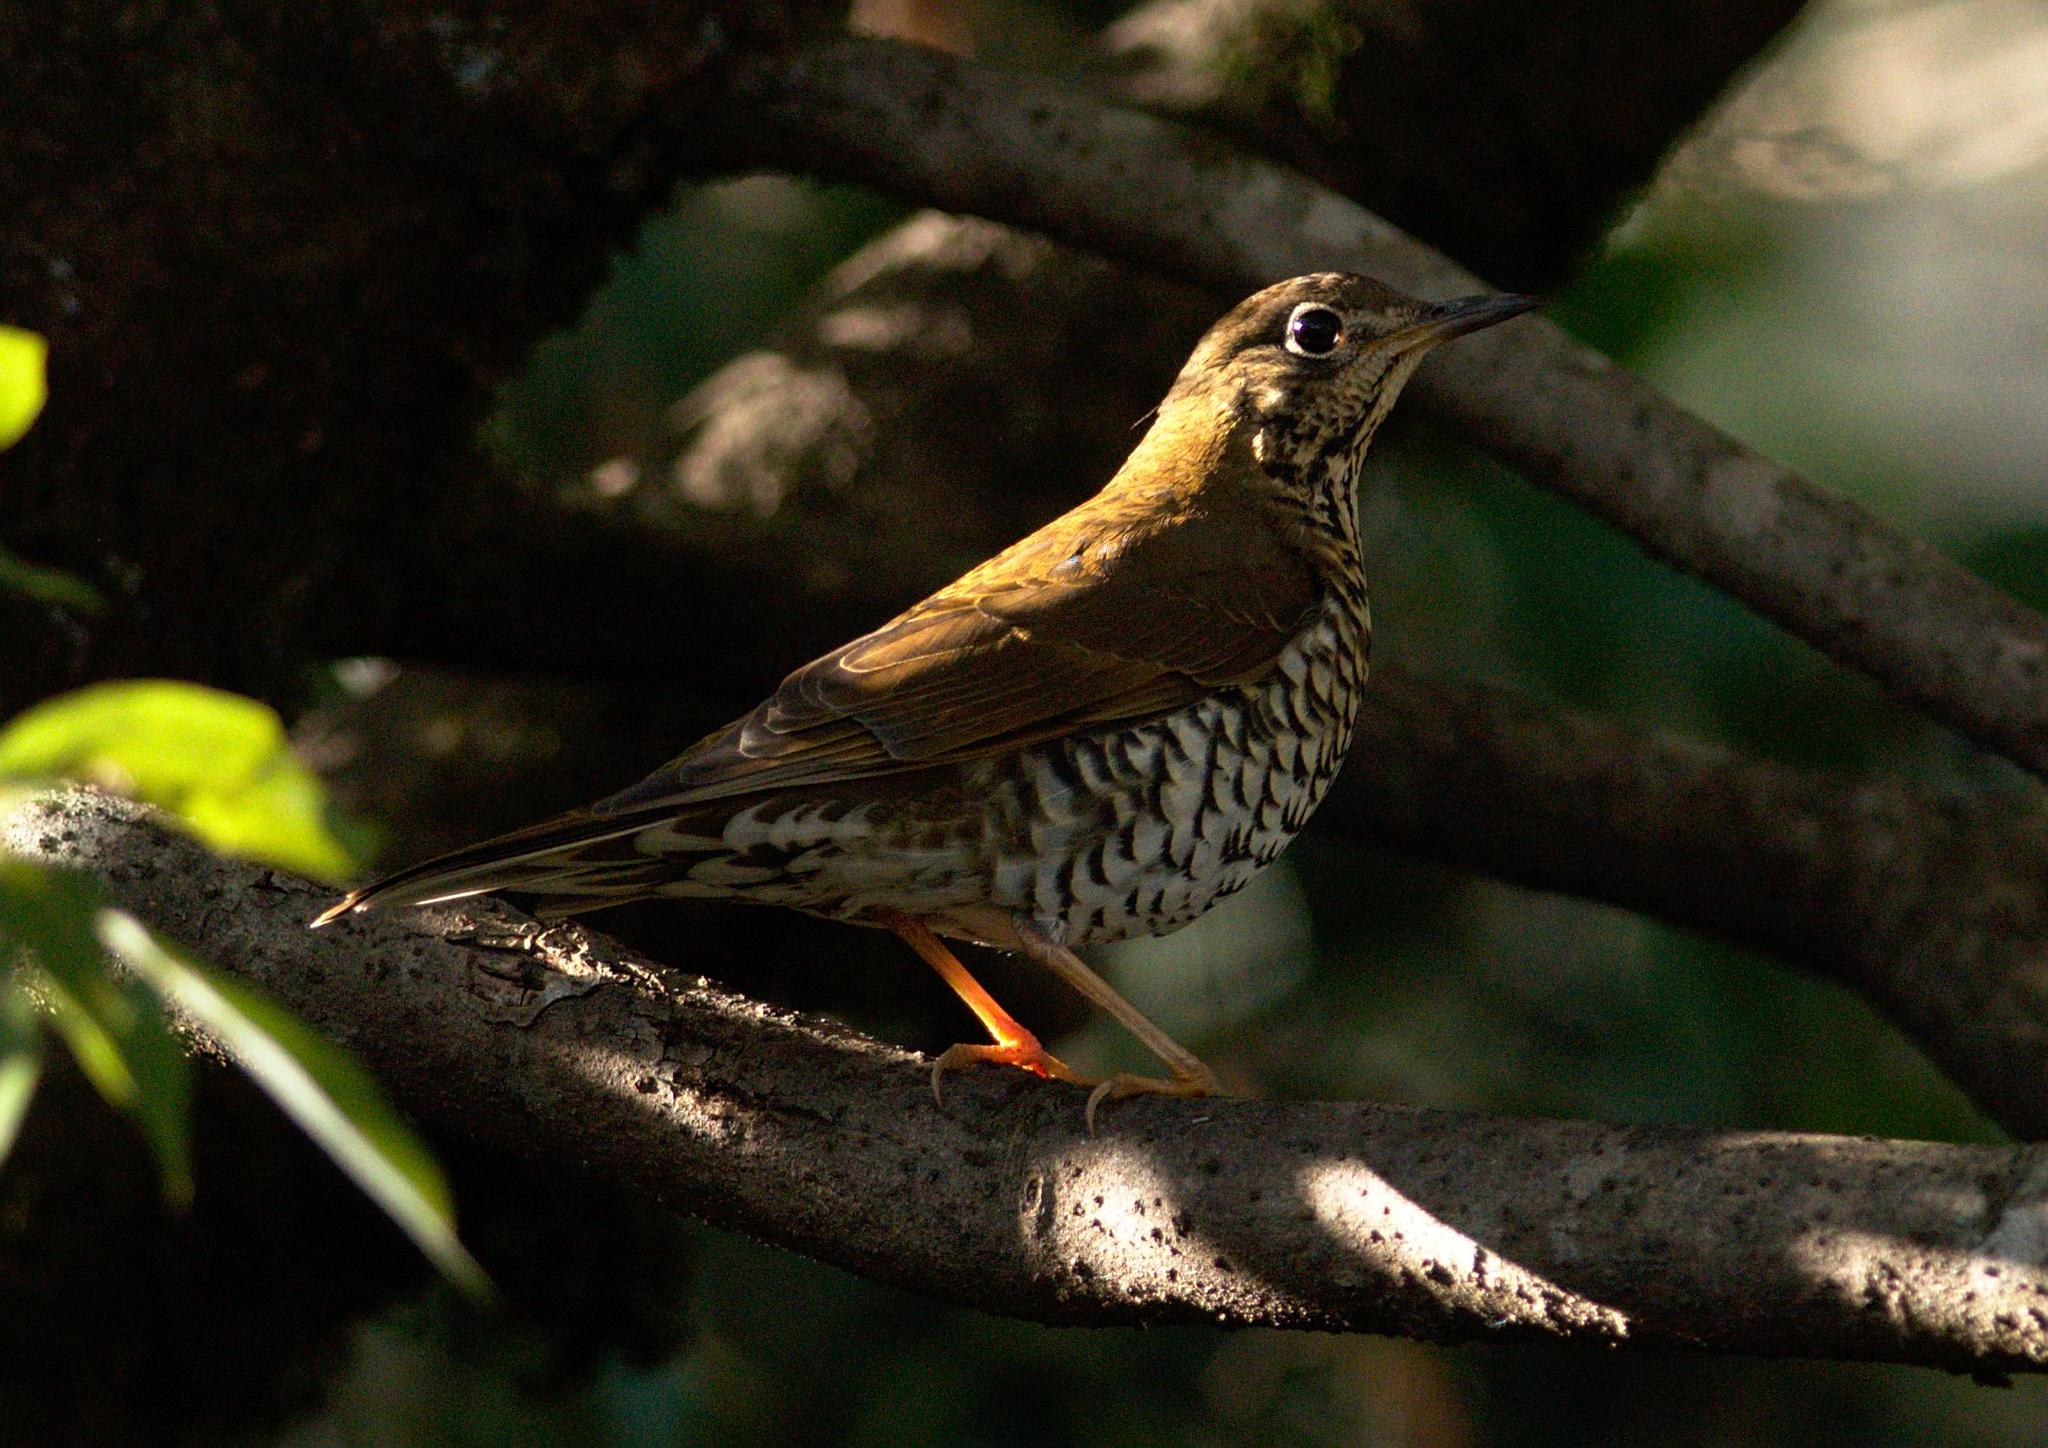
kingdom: Animalia
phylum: Chordata
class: Aves
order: Passeriformes
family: Turdidae
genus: Turdus
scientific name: Turdus viscivorus
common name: Mistle thrush
